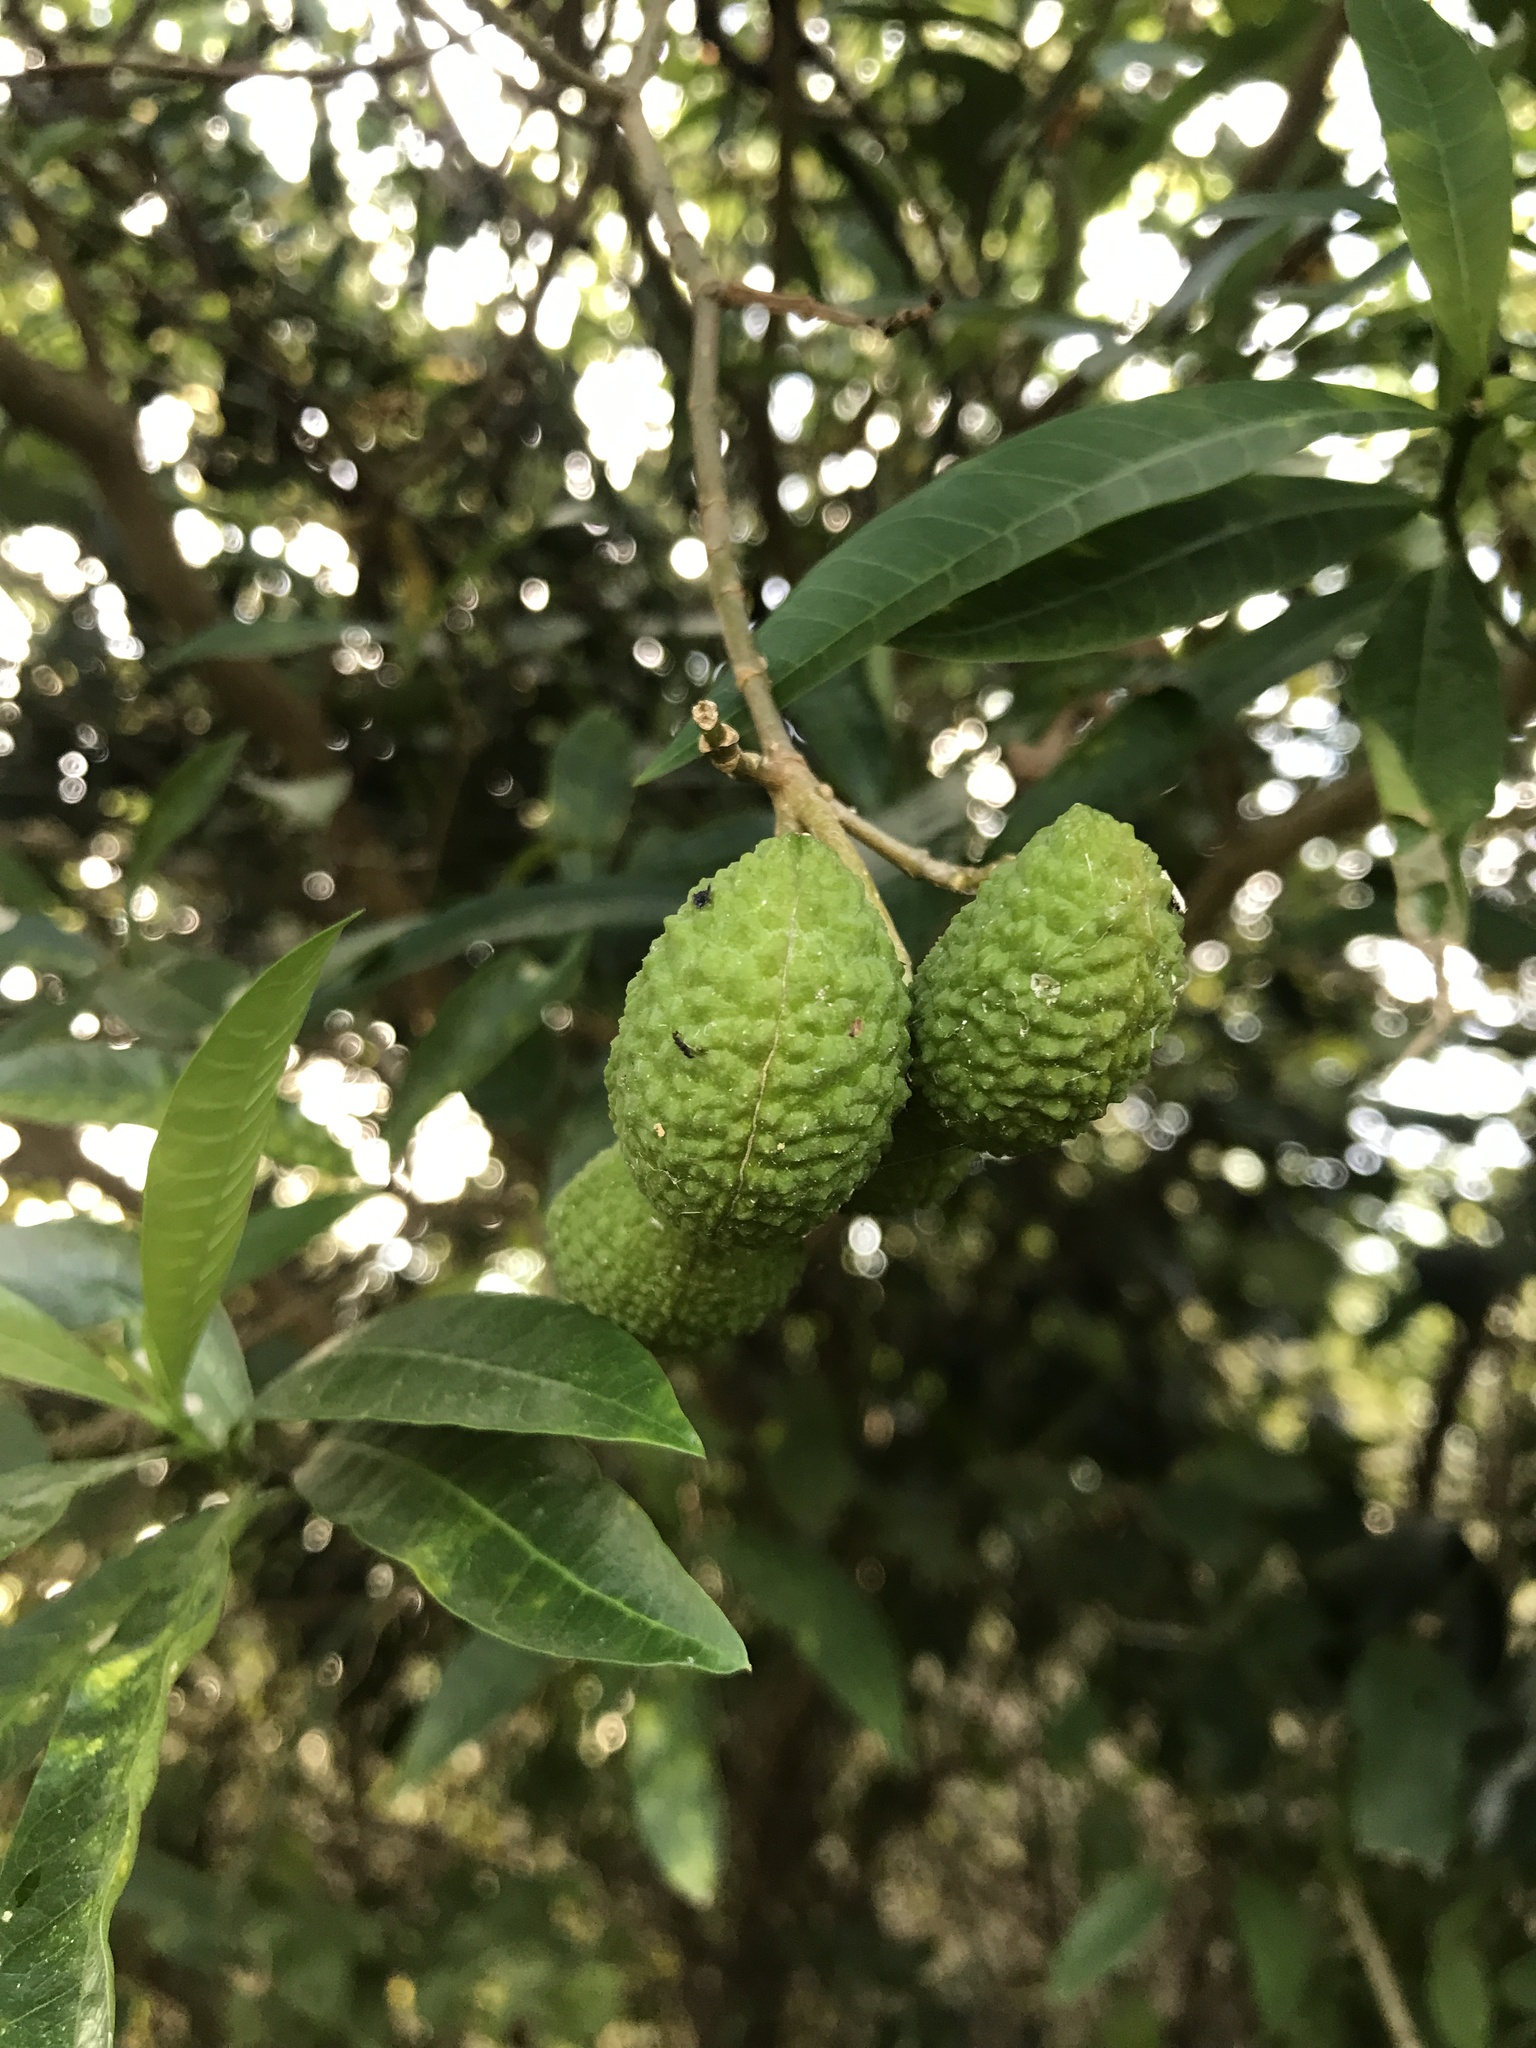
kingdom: Plantae
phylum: Tracheophyta
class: Magnoliopsida
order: Gentianales
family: Apocynaceae
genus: Tabernaemontana
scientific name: Tabernaemontana catharinensis
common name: Pinwheel-flower
